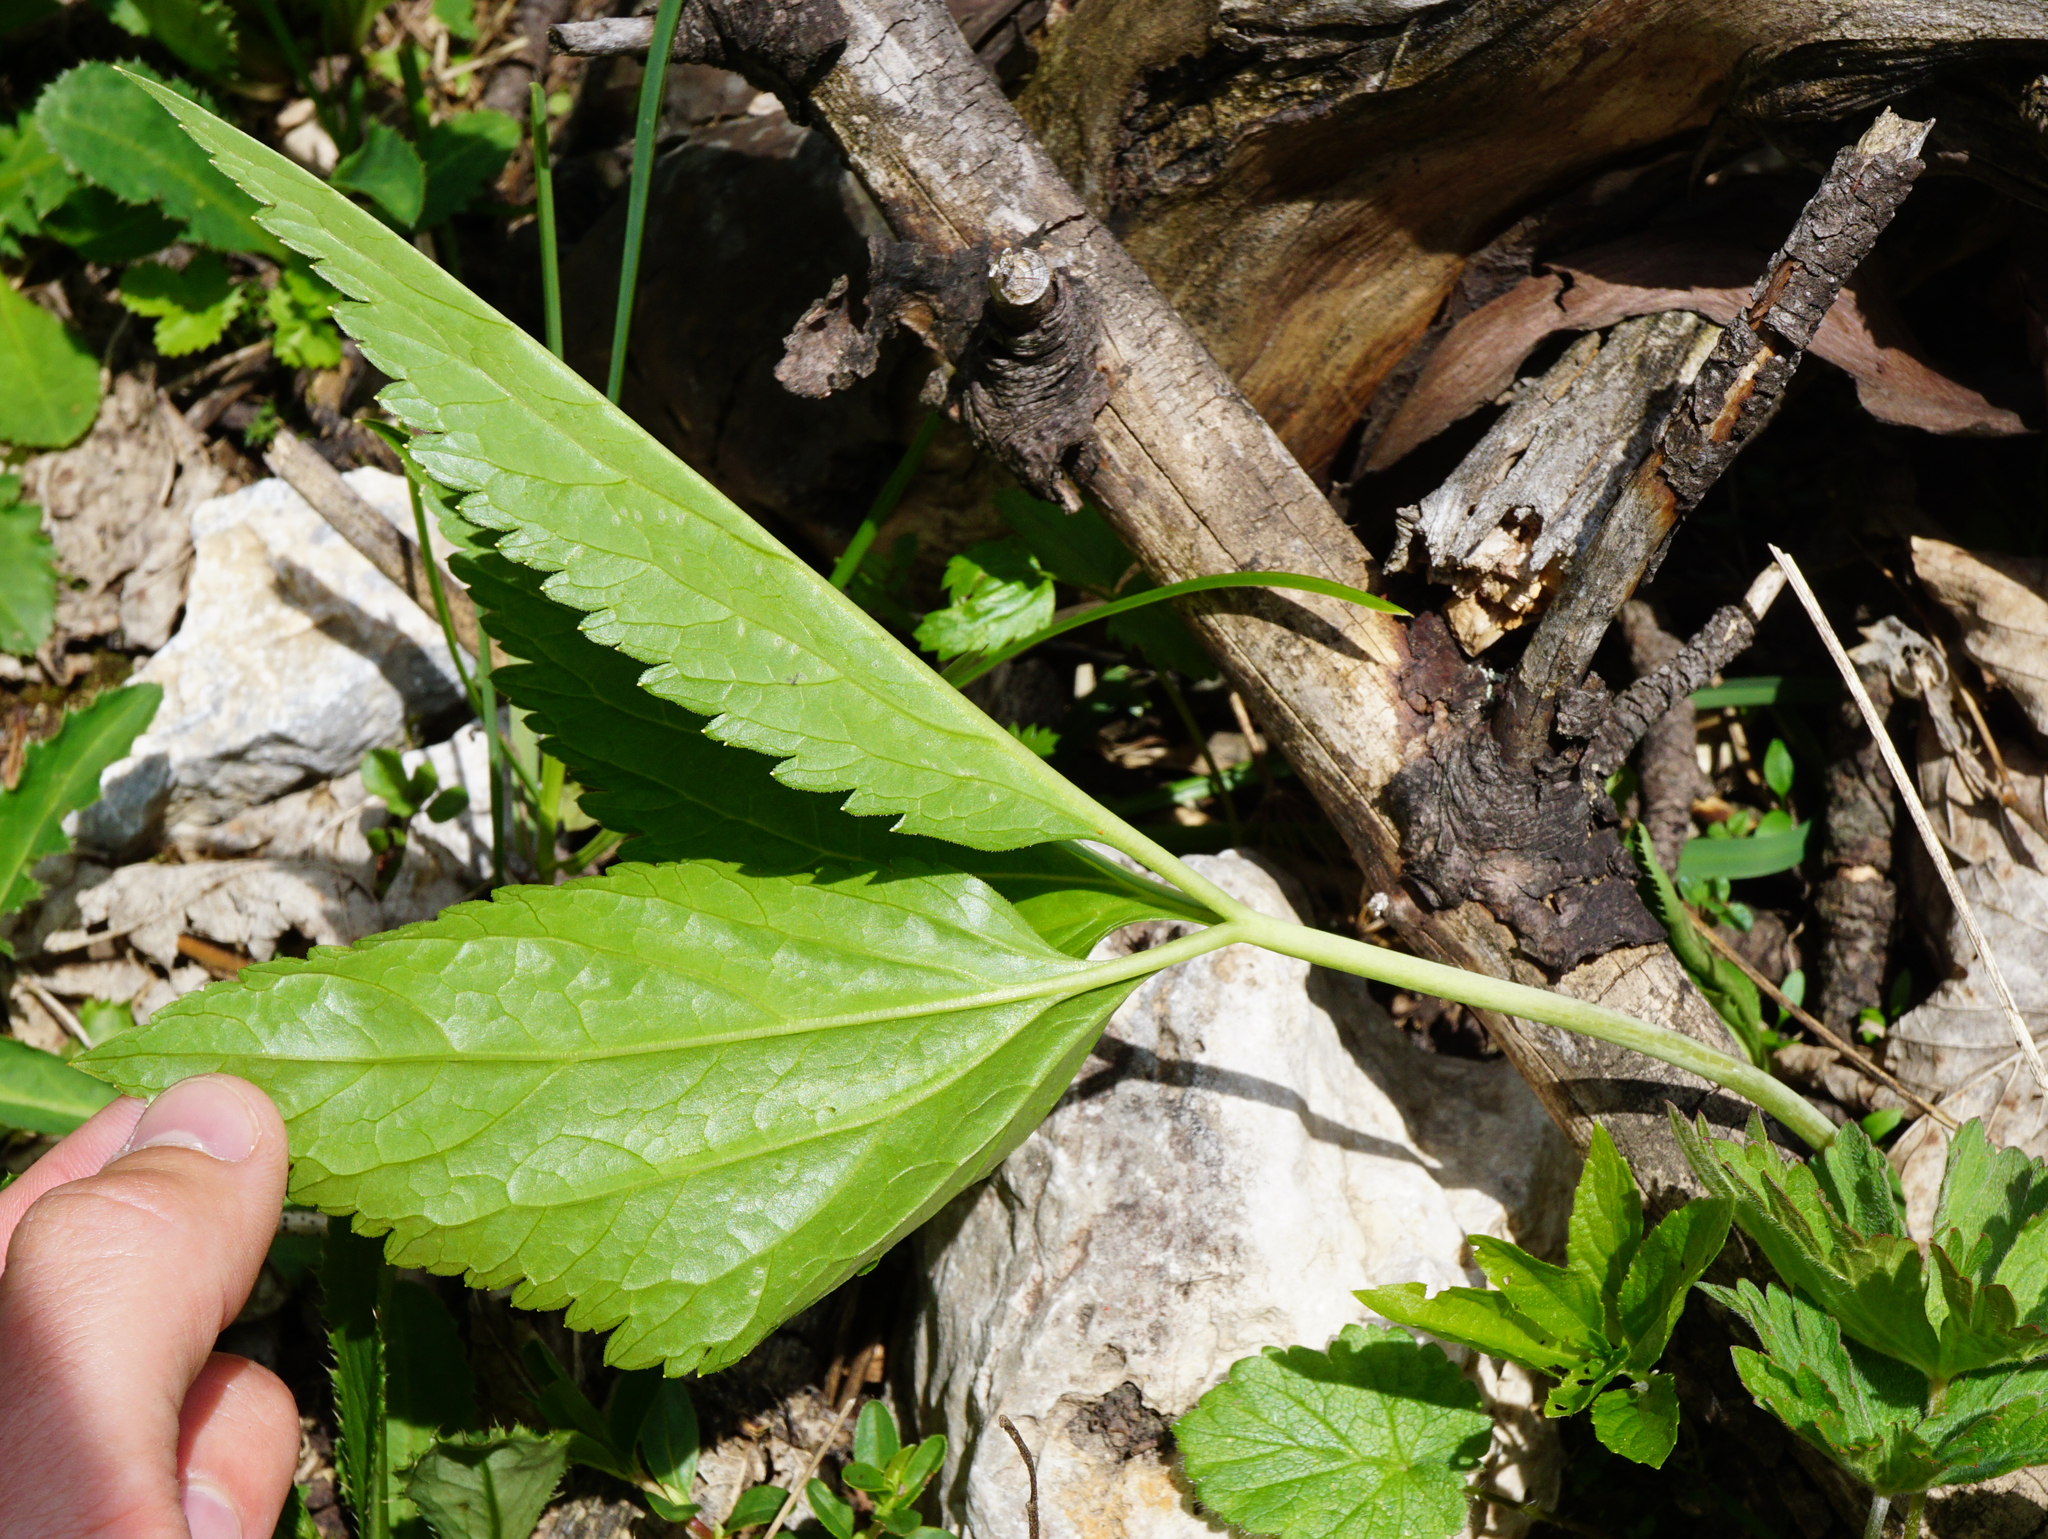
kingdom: Plantae
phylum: Tracheophyta
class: Magnoliopsida
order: Brassicales
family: Brassicaceae
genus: Cardamine
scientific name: Cardamine enneaphyllos
